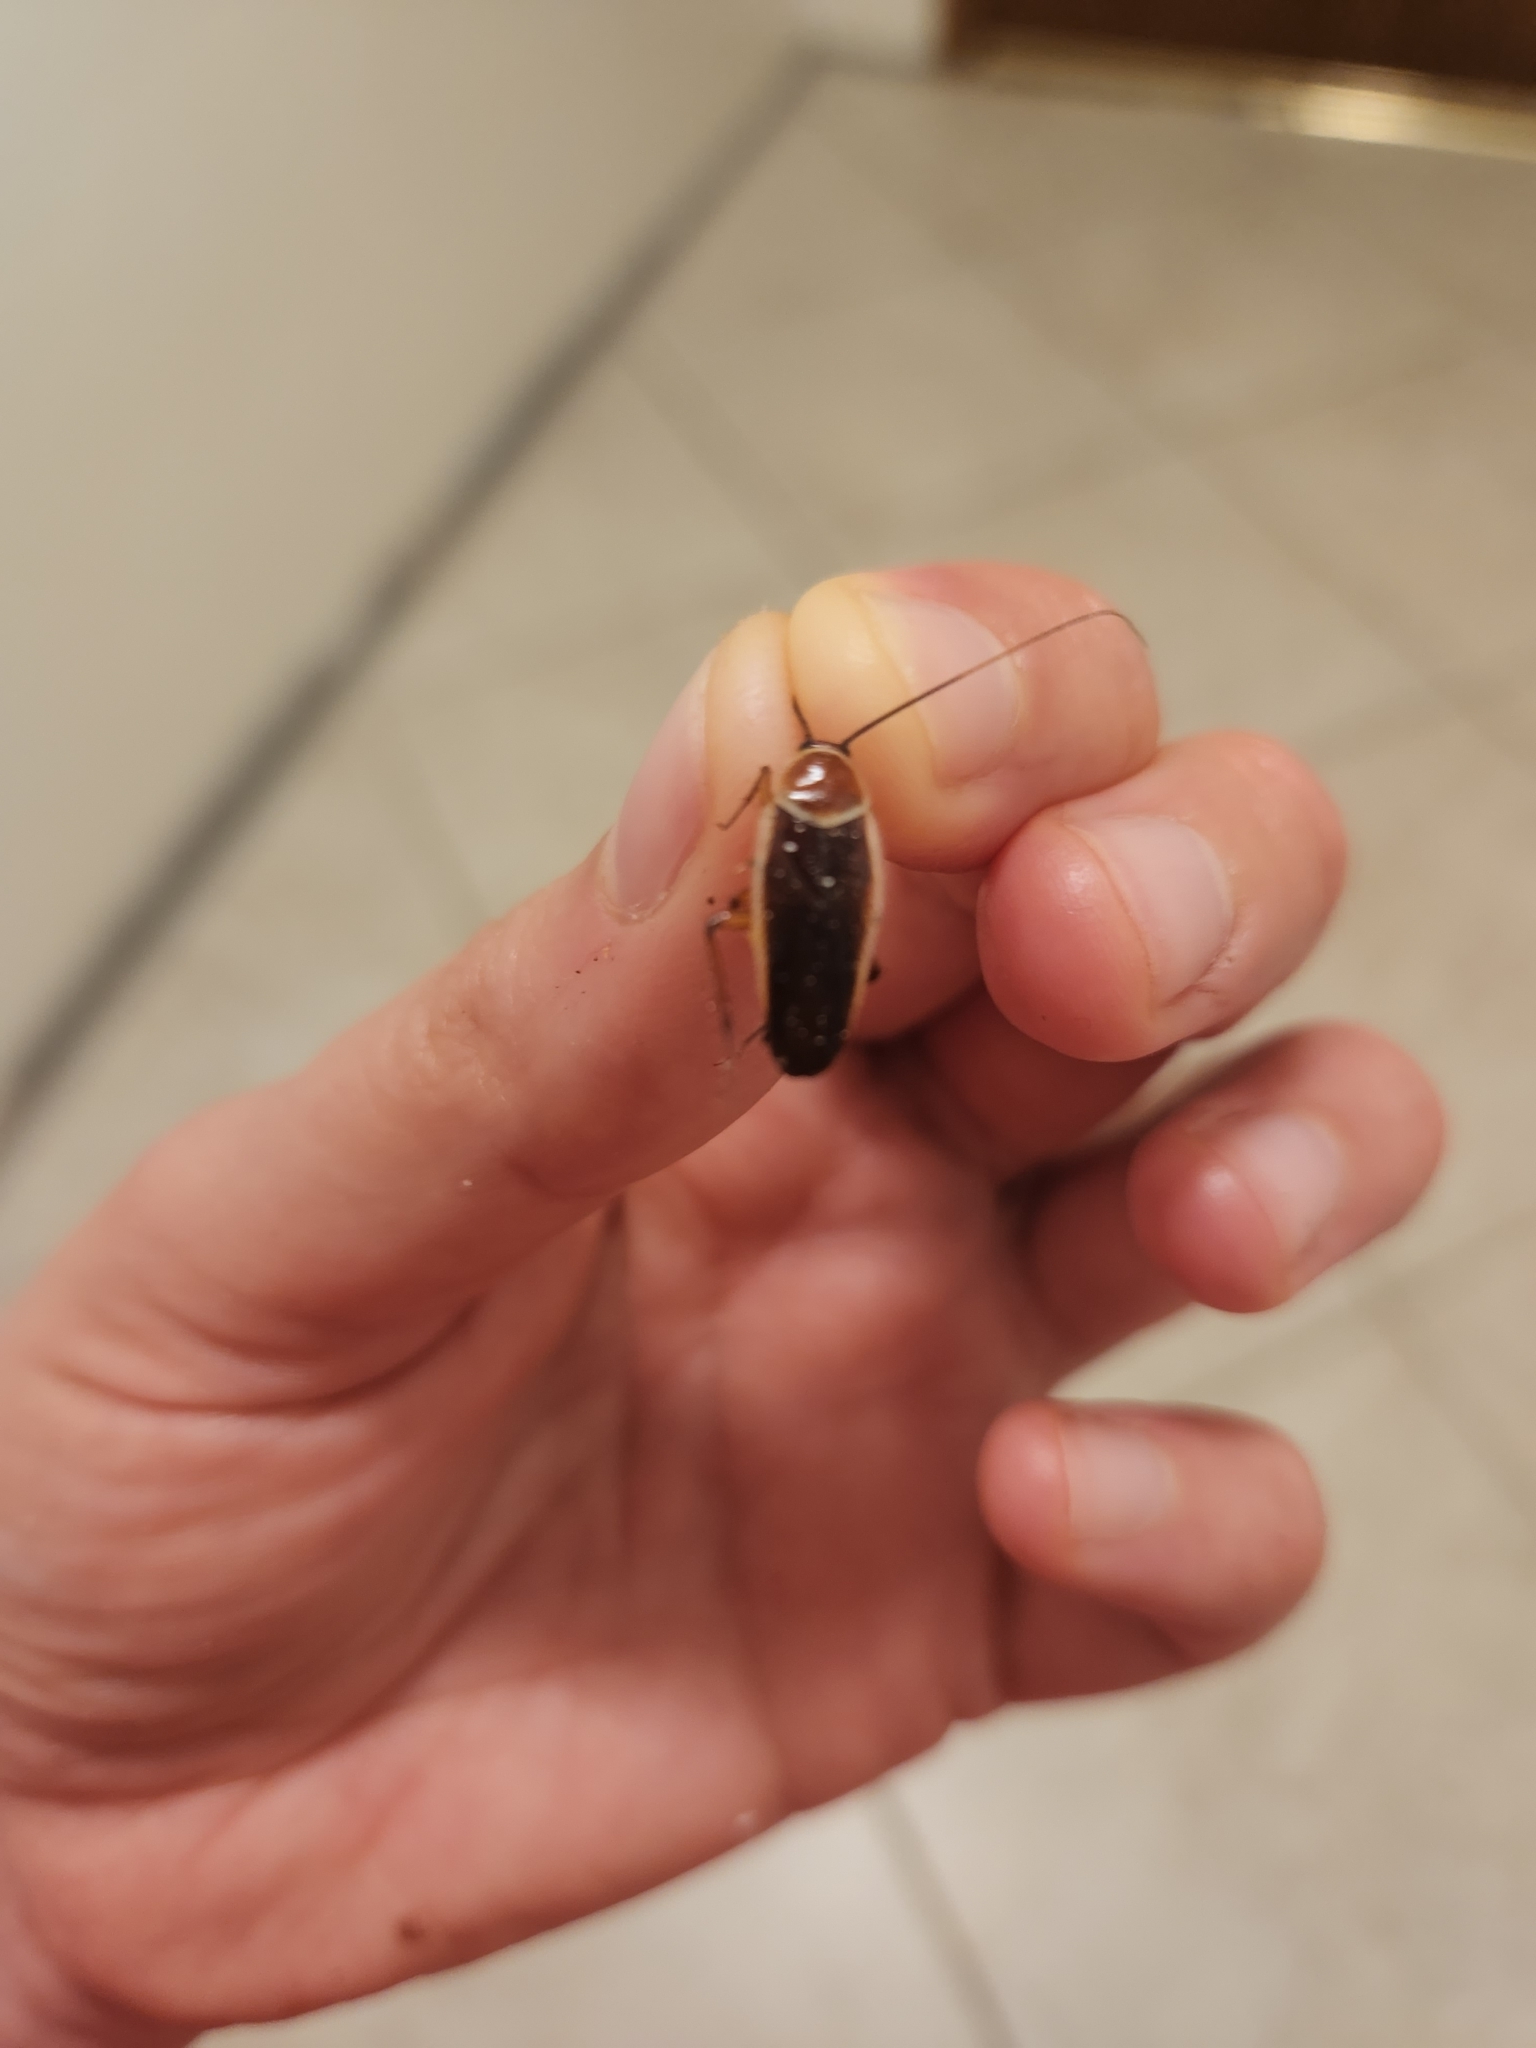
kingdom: Animalia
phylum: Arthropoda
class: Insecta
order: Blattodea
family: Ectobiidae
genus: Pseudomops
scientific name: Pseudomops septentrionalis
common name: Pale-bordered field cockroach
